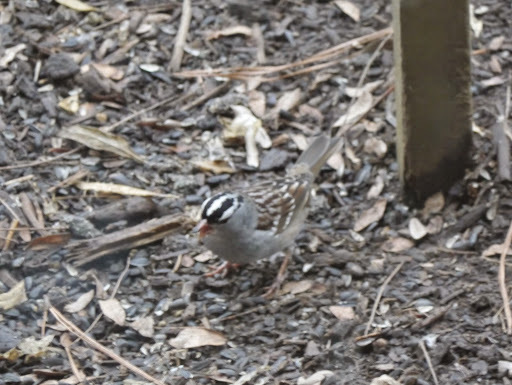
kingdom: Animalia
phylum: Chordata
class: Aves
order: Passeriformes
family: Passerellidae
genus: Zonotrichia
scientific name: Zonotrichia leucophrys
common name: White-crowned sparrow
